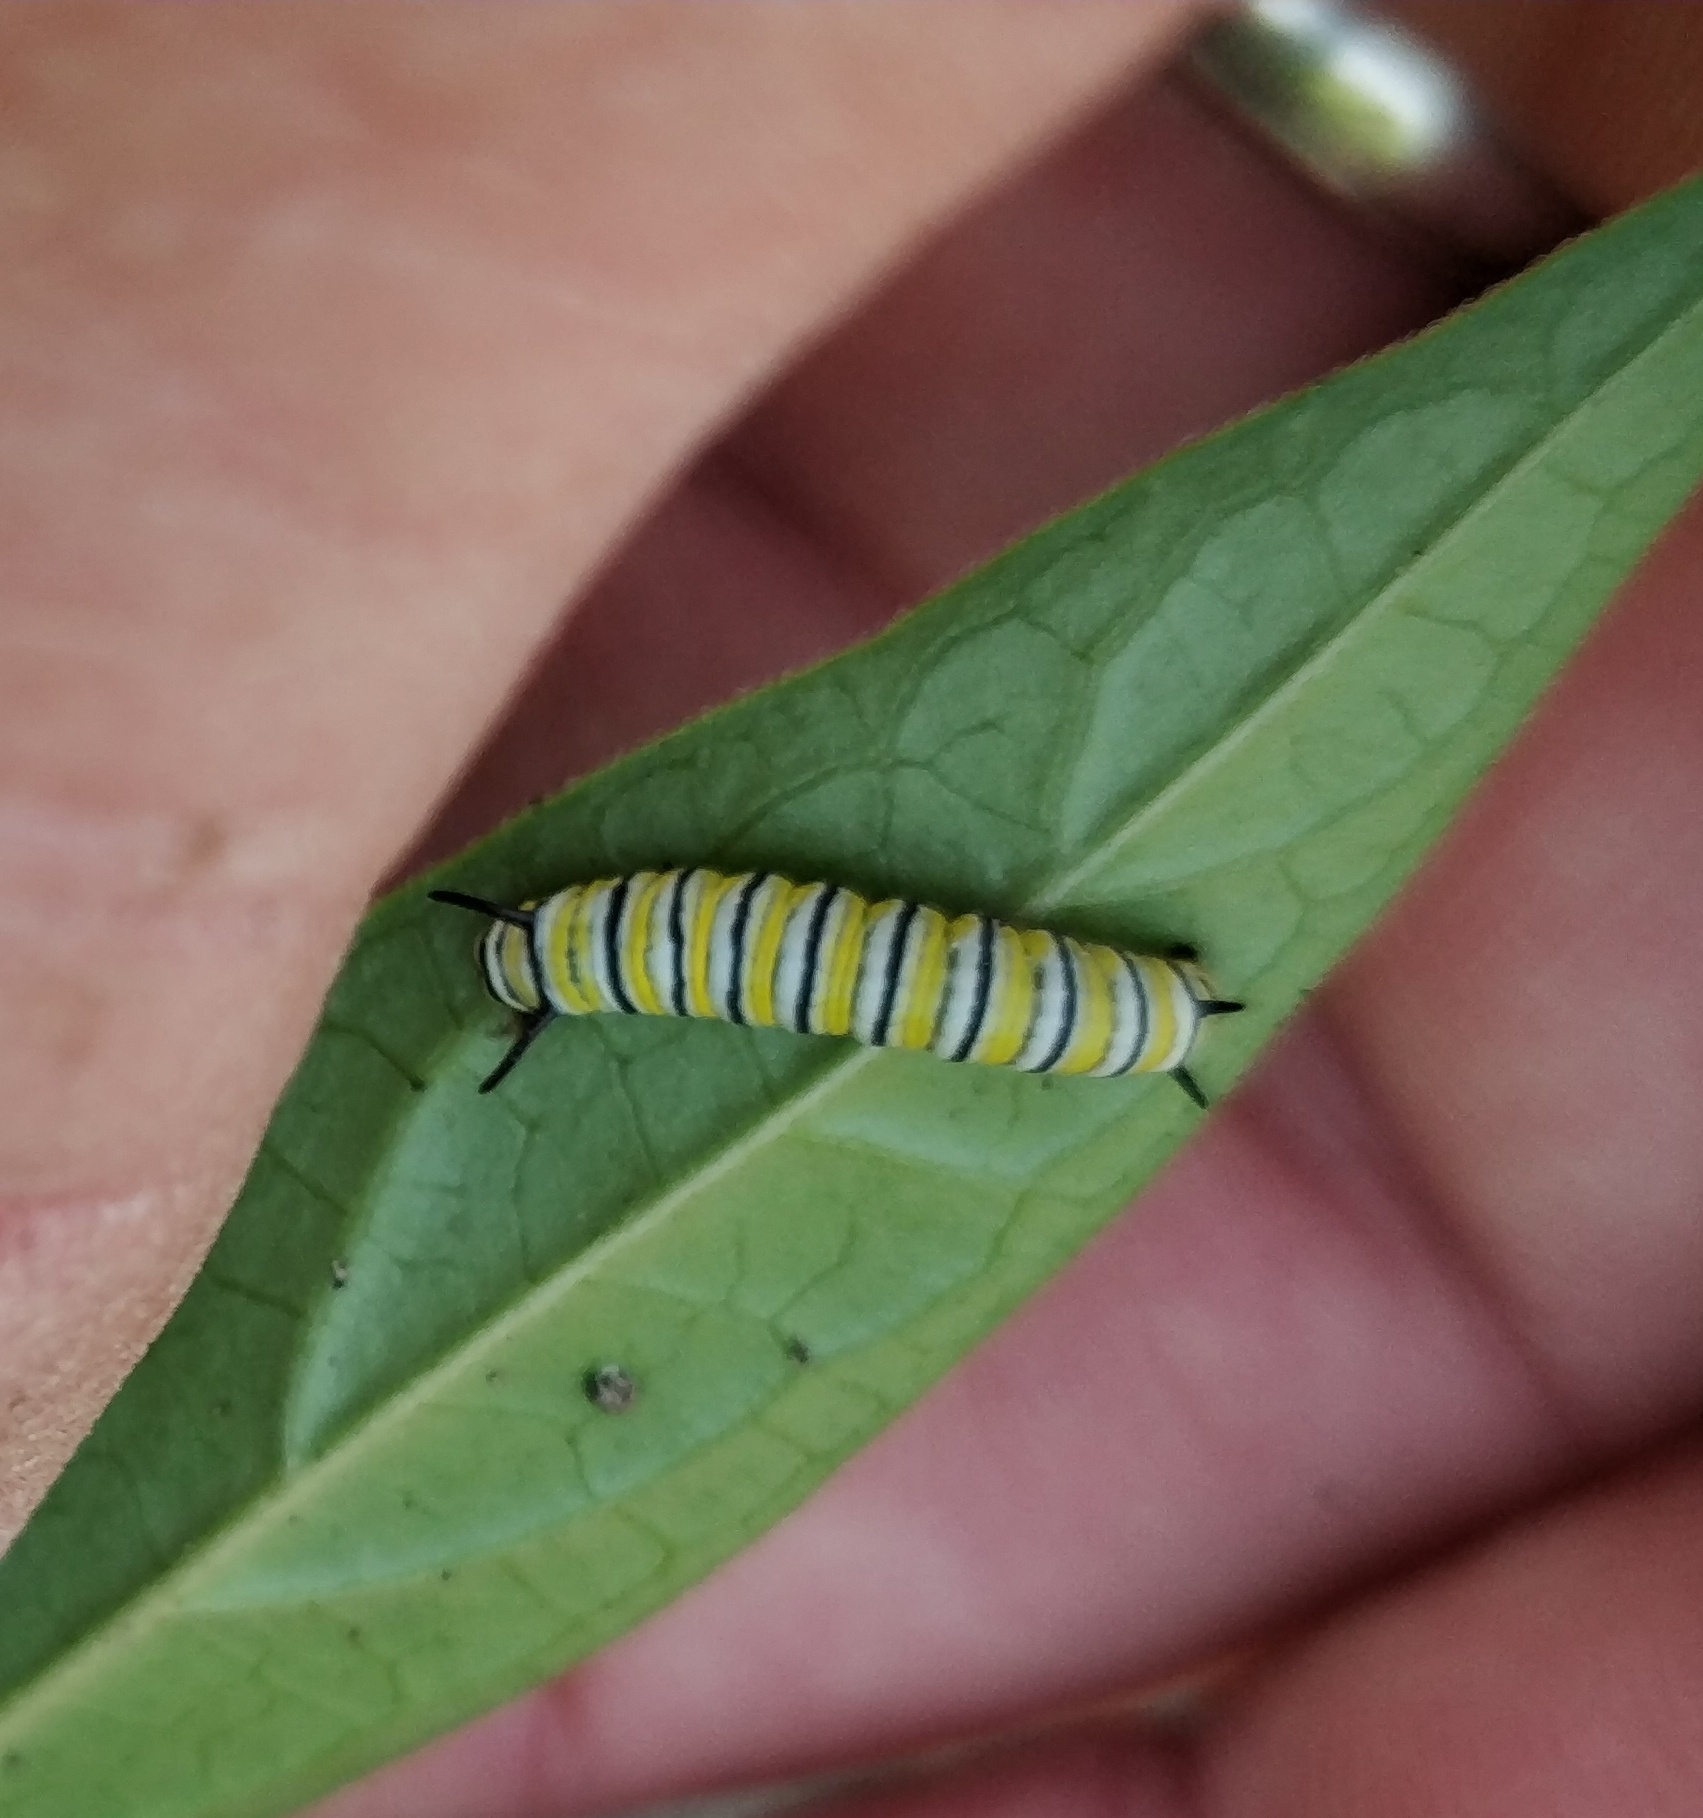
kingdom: Animalia
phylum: Arthropoda
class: Insecta
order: Lepidoptera
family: Nymphalidae
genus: Danaus
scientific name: Danaus plexippus
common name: Monarch
